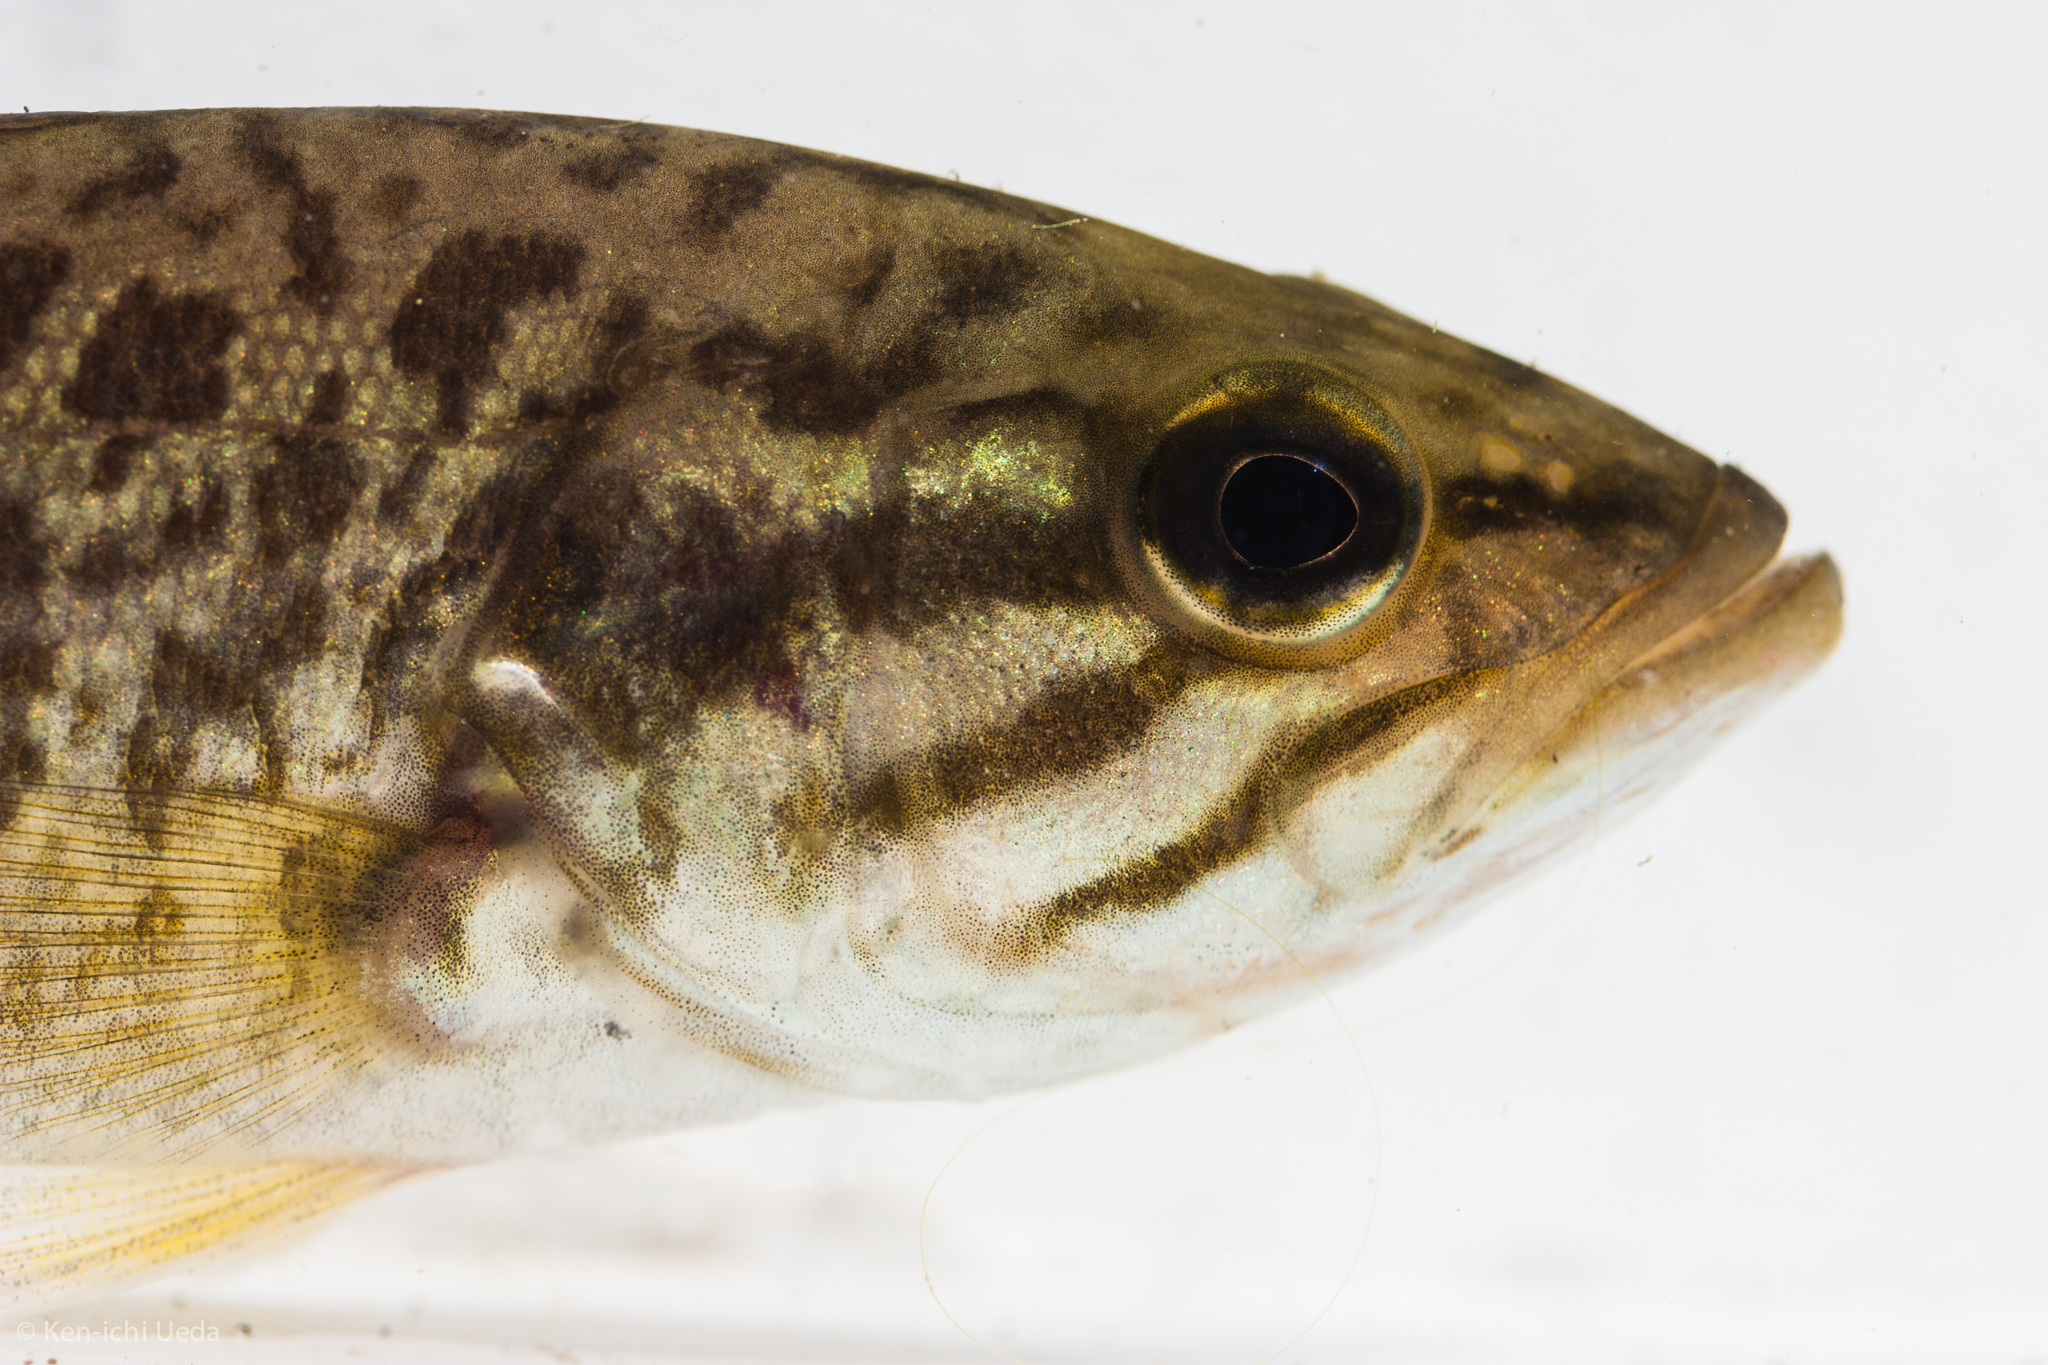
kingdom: Animalia
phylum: Chordata
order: Perciformes
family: Centrarchidae
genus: Micropterus
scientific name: Micropterus dolomieu
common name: Smallmouth bass
